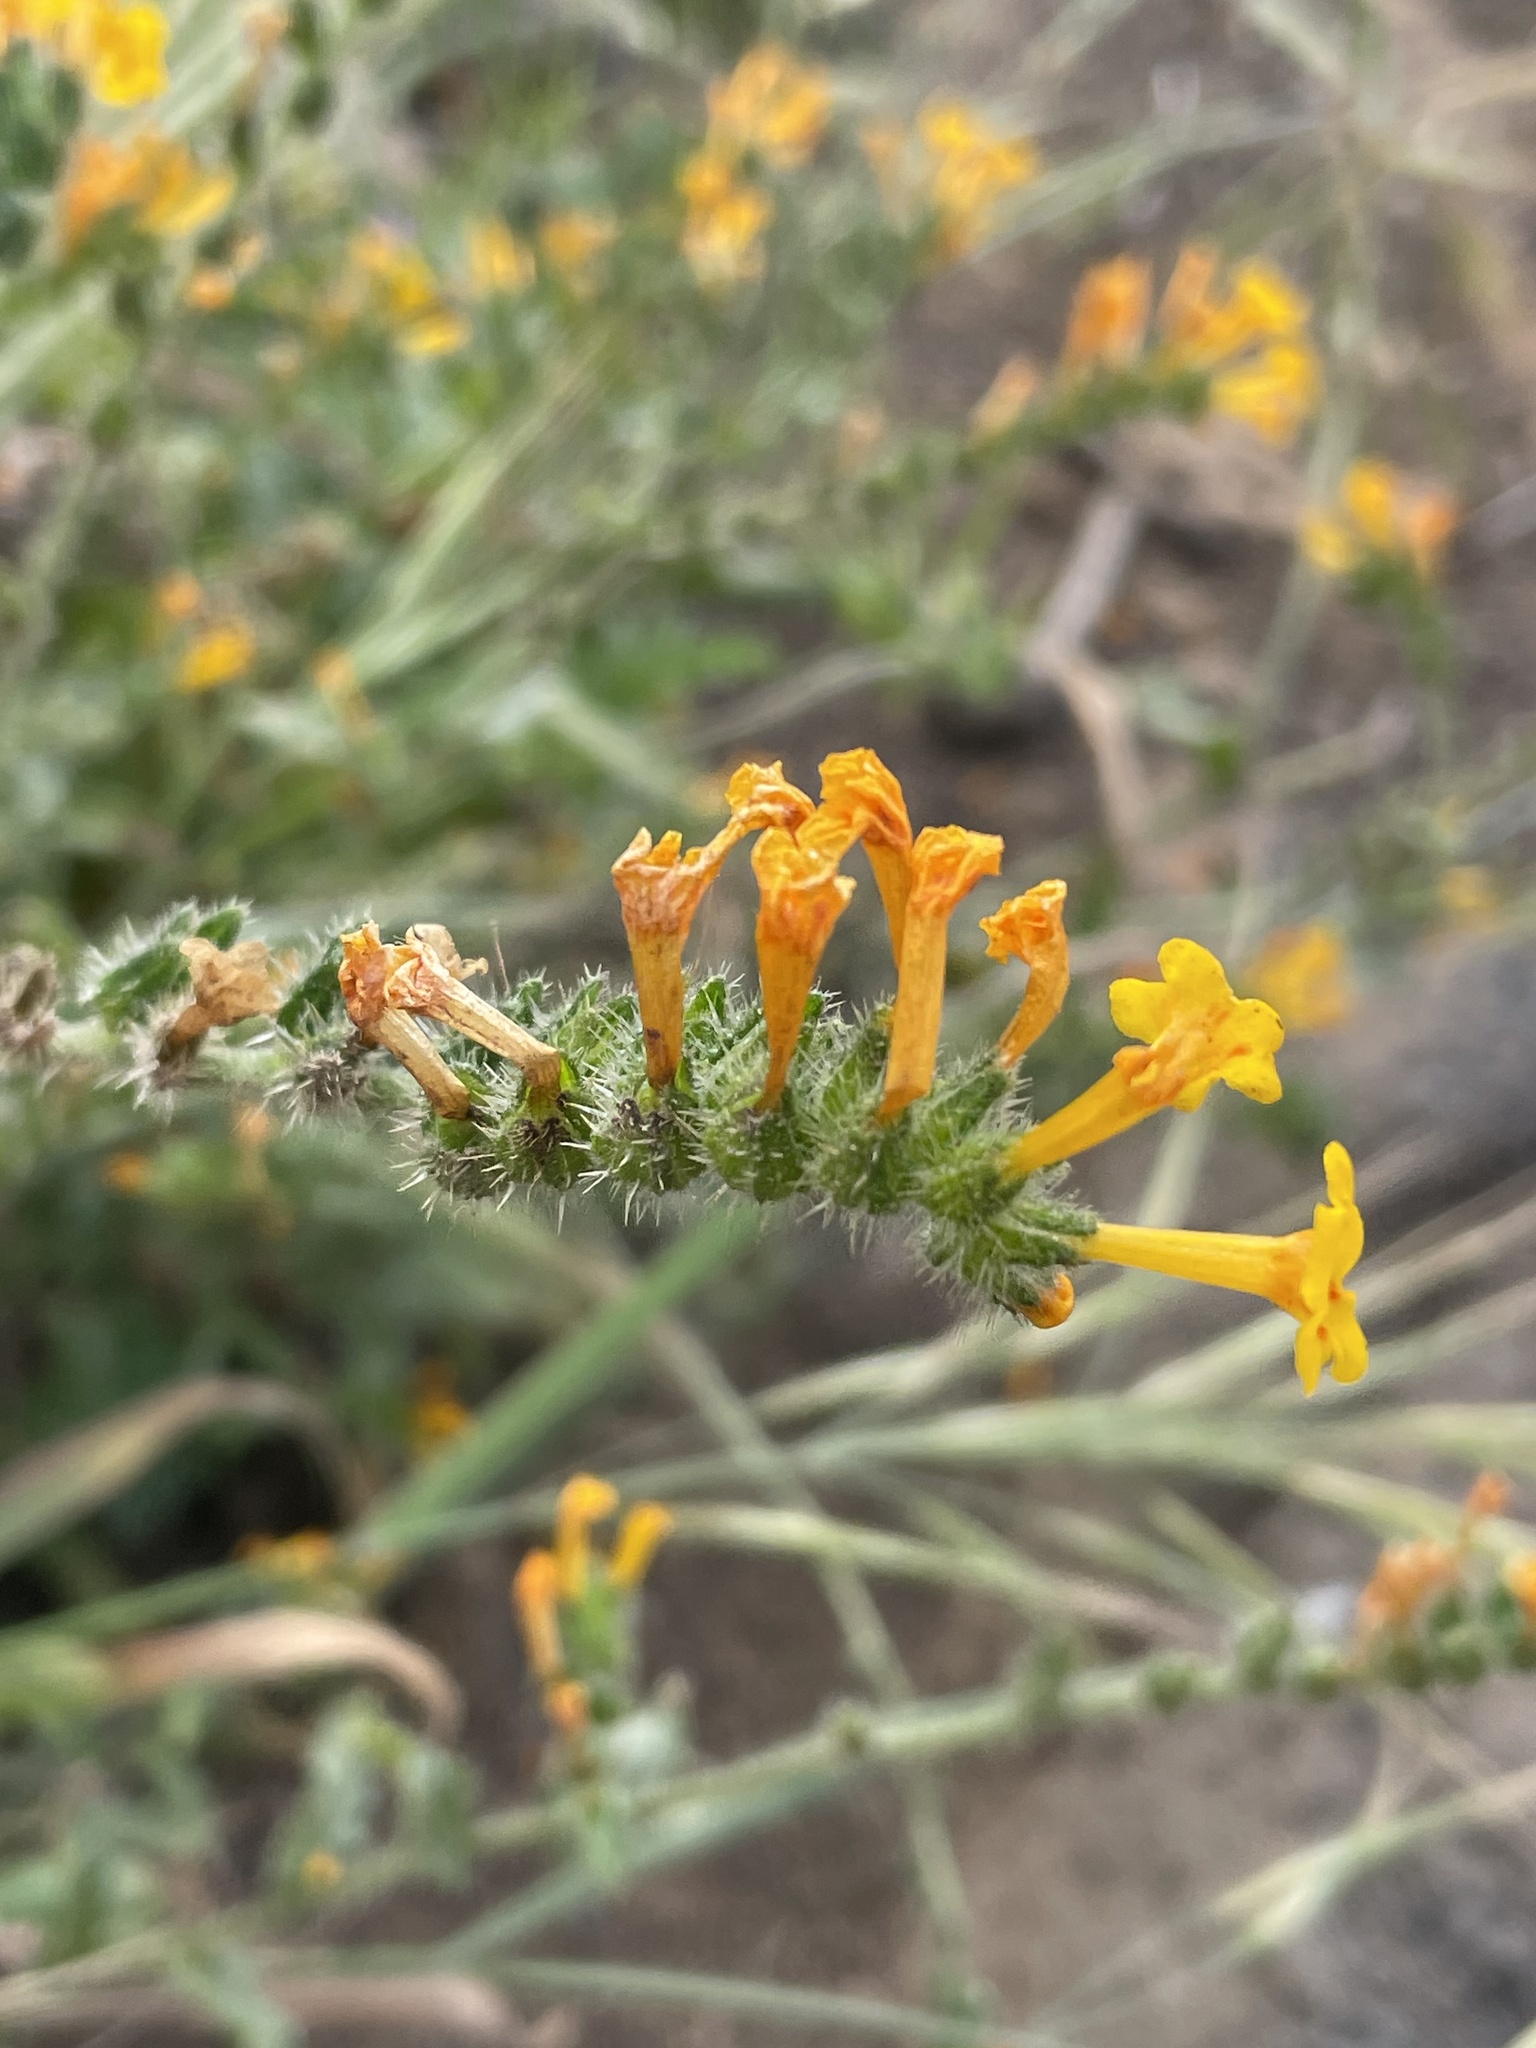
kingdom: Plantae
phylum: Tracheophyta
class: Magnoliopsida
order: Boraginales
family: Boraginaceae
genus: Amsinckia
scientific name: Amsinckia menziesii
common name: Menzies' fiddleneck
